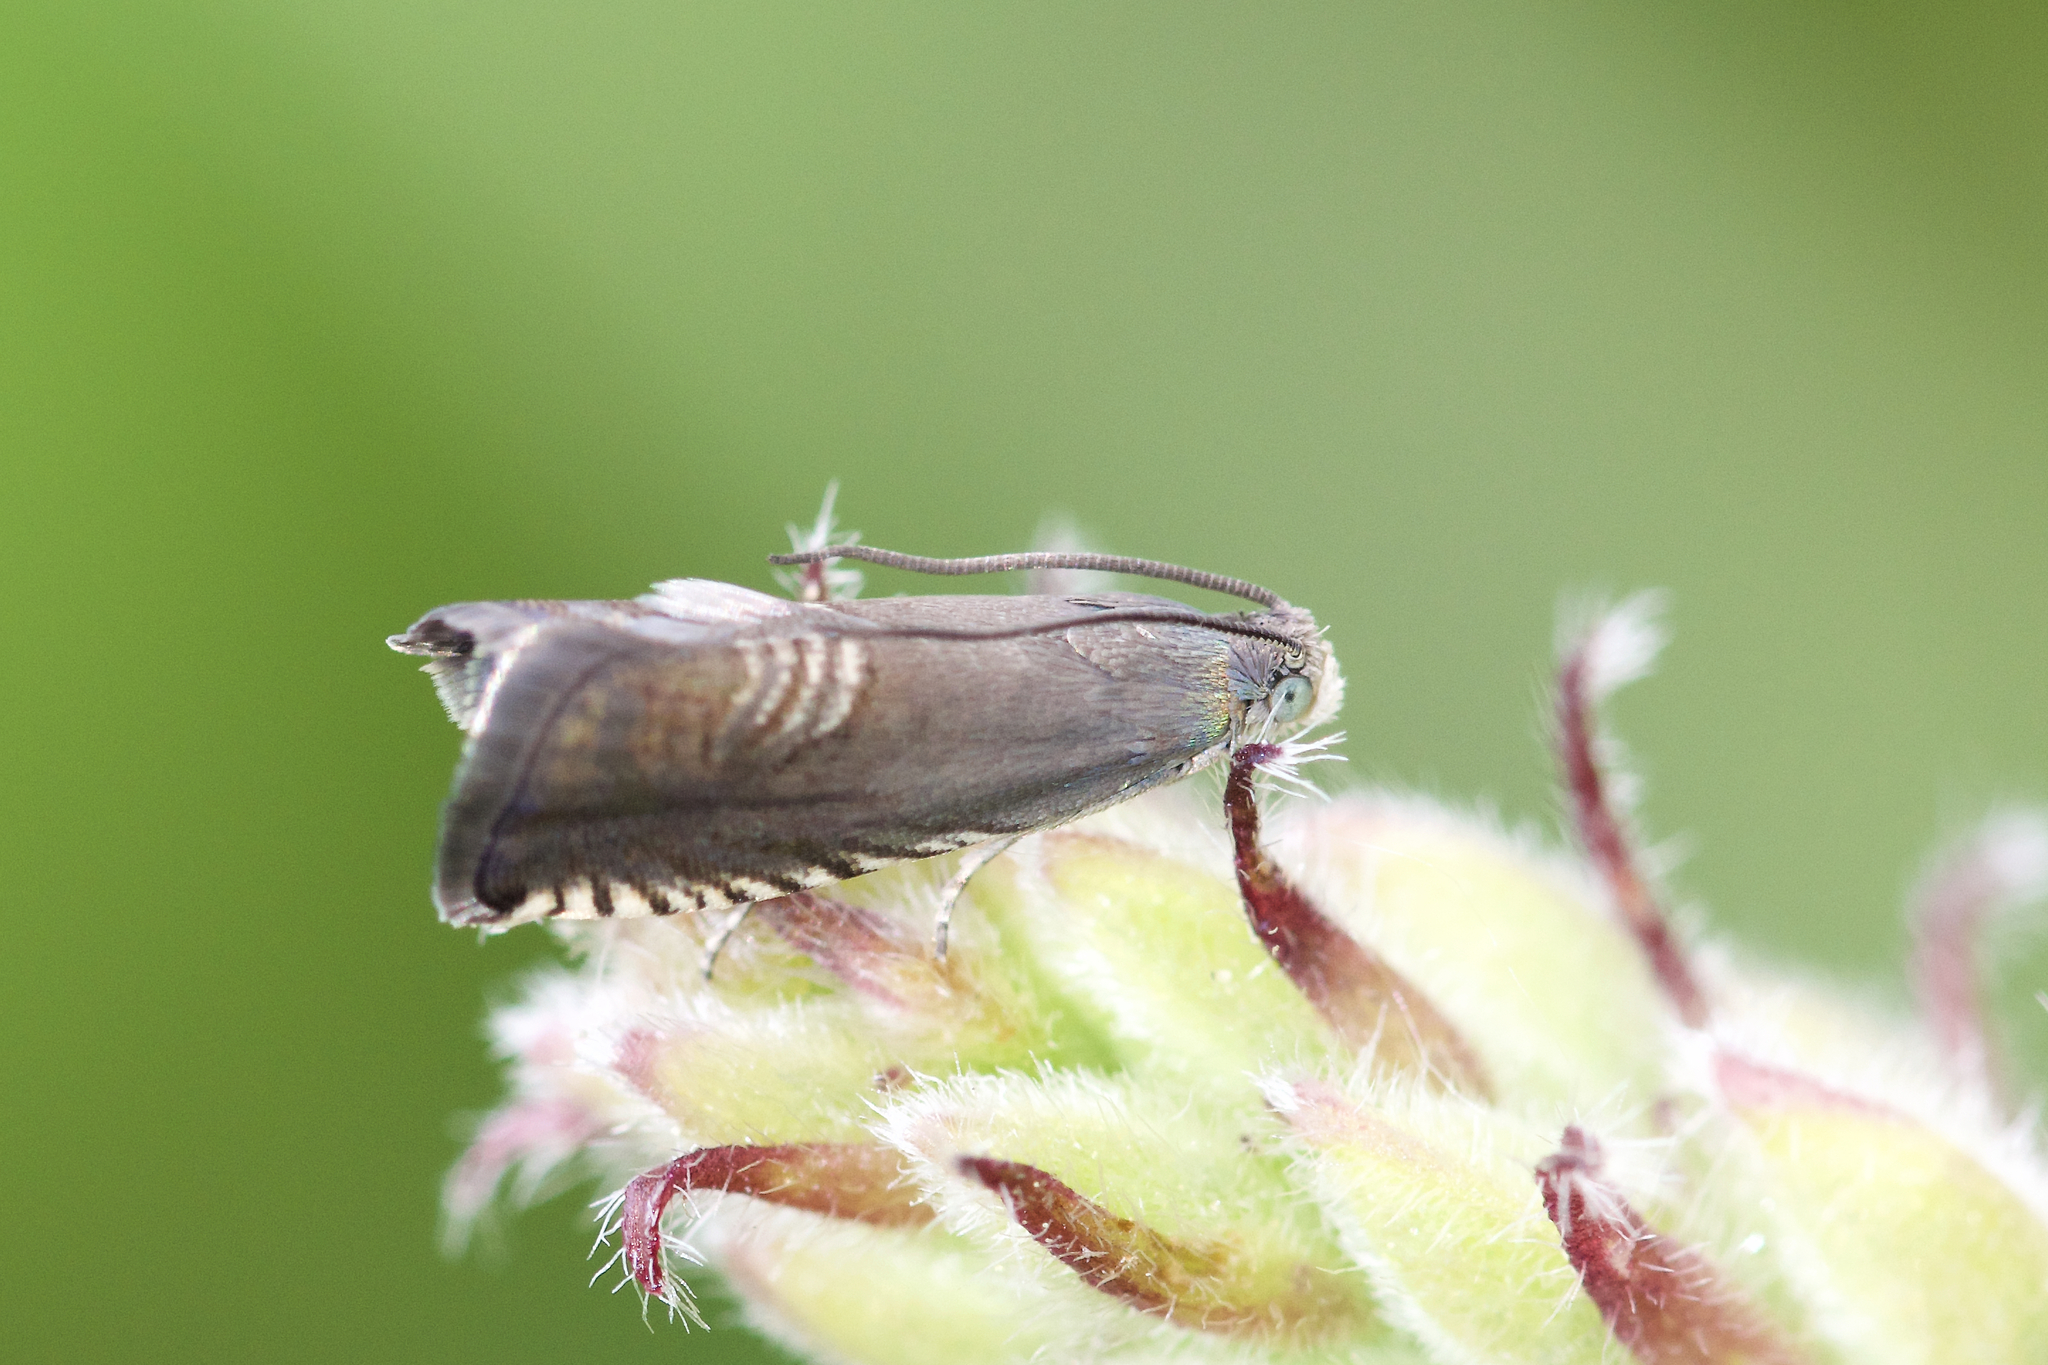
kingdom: Animalia
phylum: Arthropoda
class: Insecta
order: Lepidoptera
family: Tortricidae
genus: Grapholita
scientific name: Grapholita interstinctana
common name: Clover head caterpillar moth
